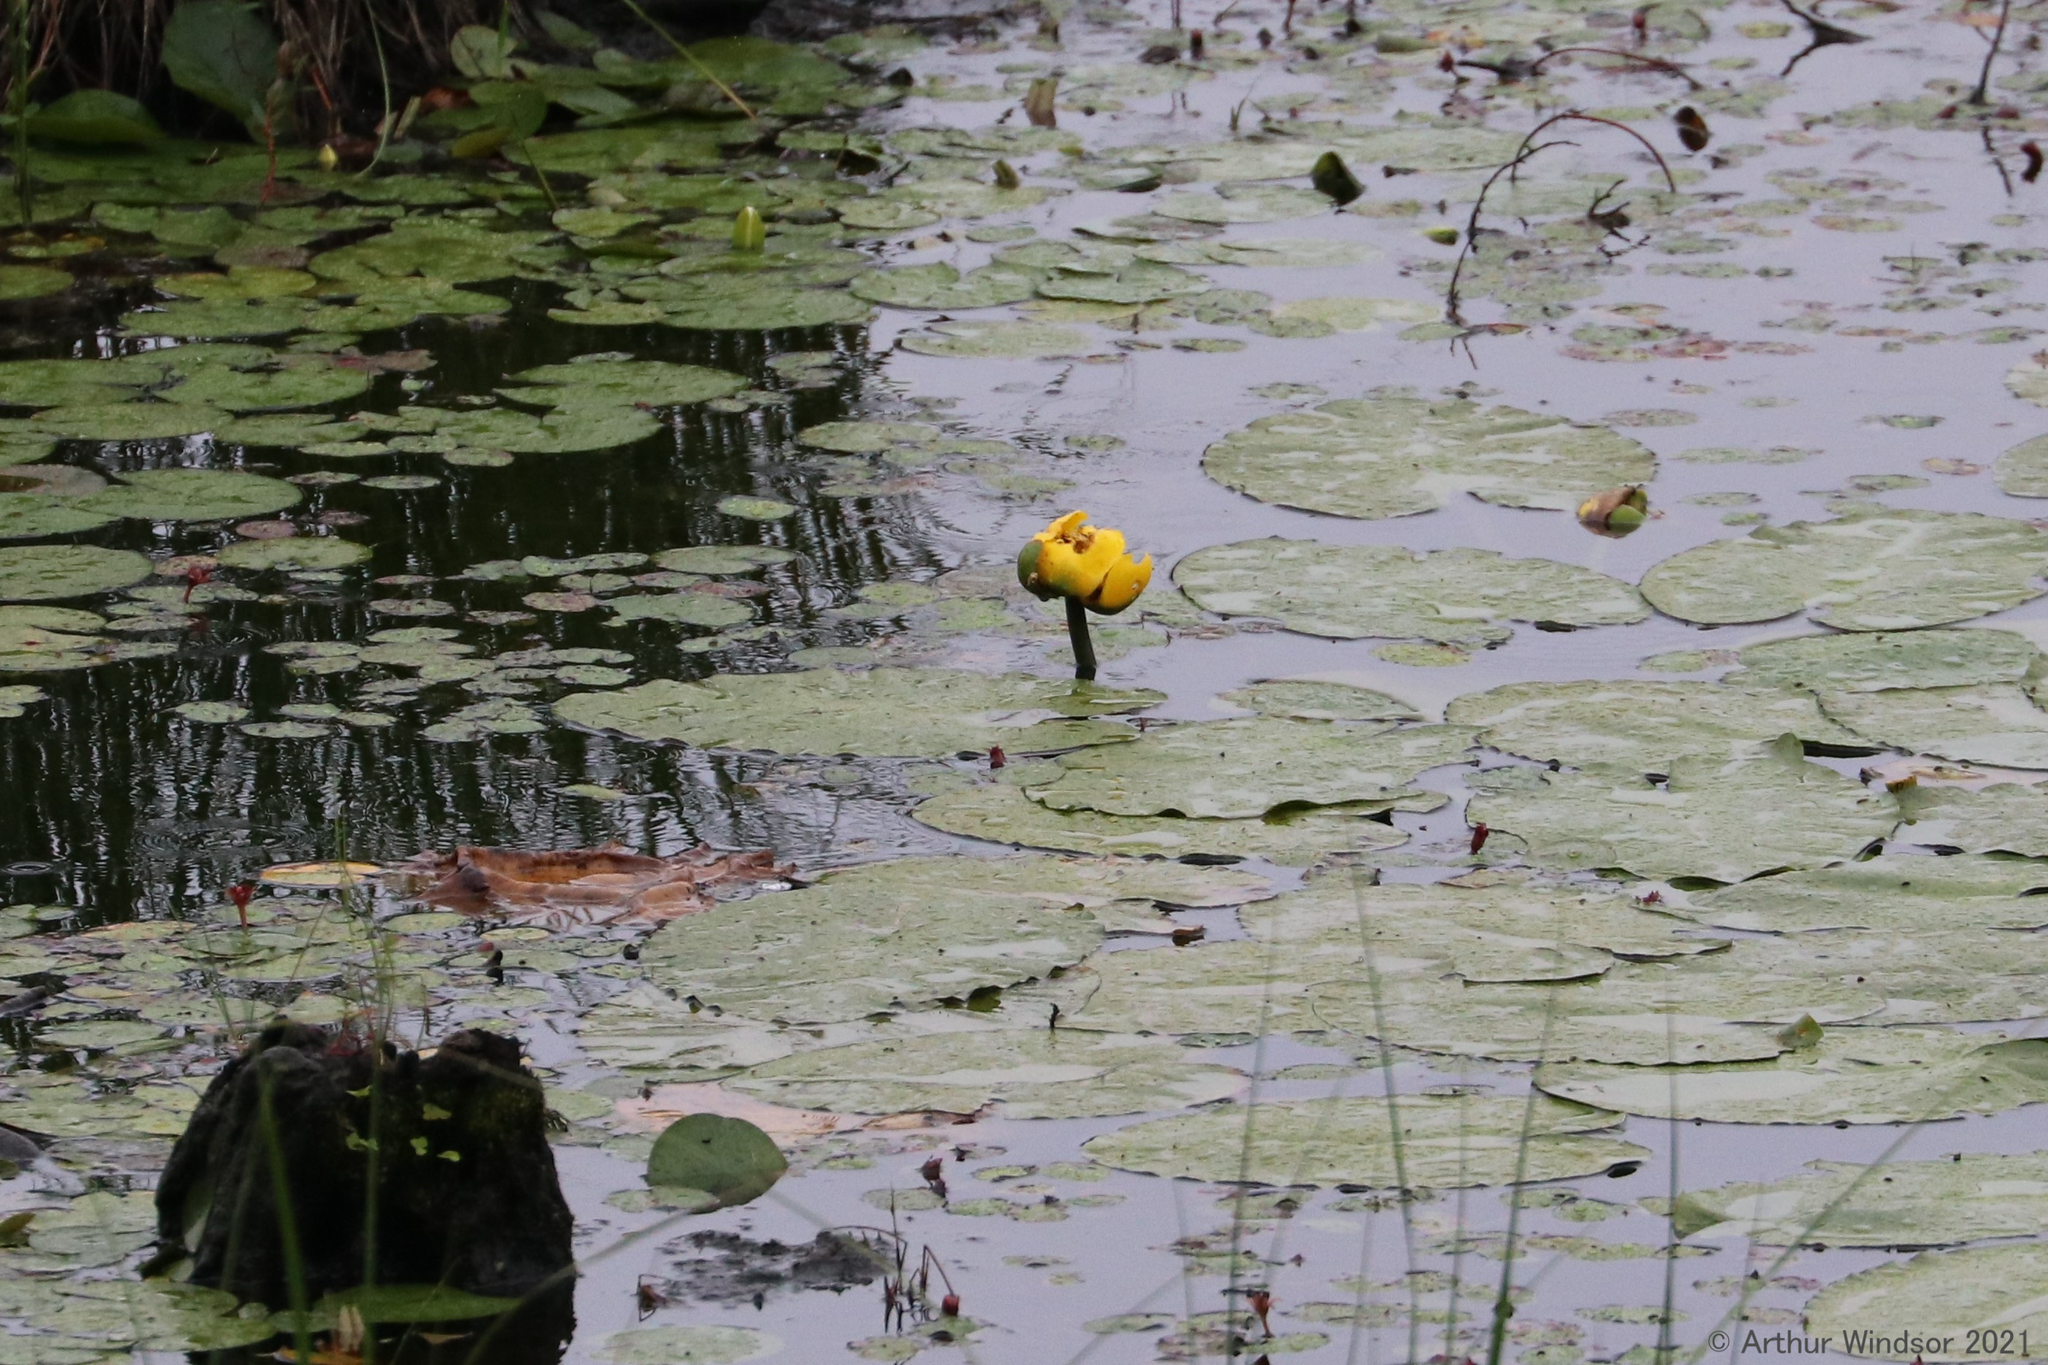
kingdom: Plantae
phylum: Tracheophyta
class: Magnoliopsida
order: Nymphaeales
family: Nymphaeaceae
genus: Nuphar
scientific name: Nuphar variegata
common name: Beaver-root
